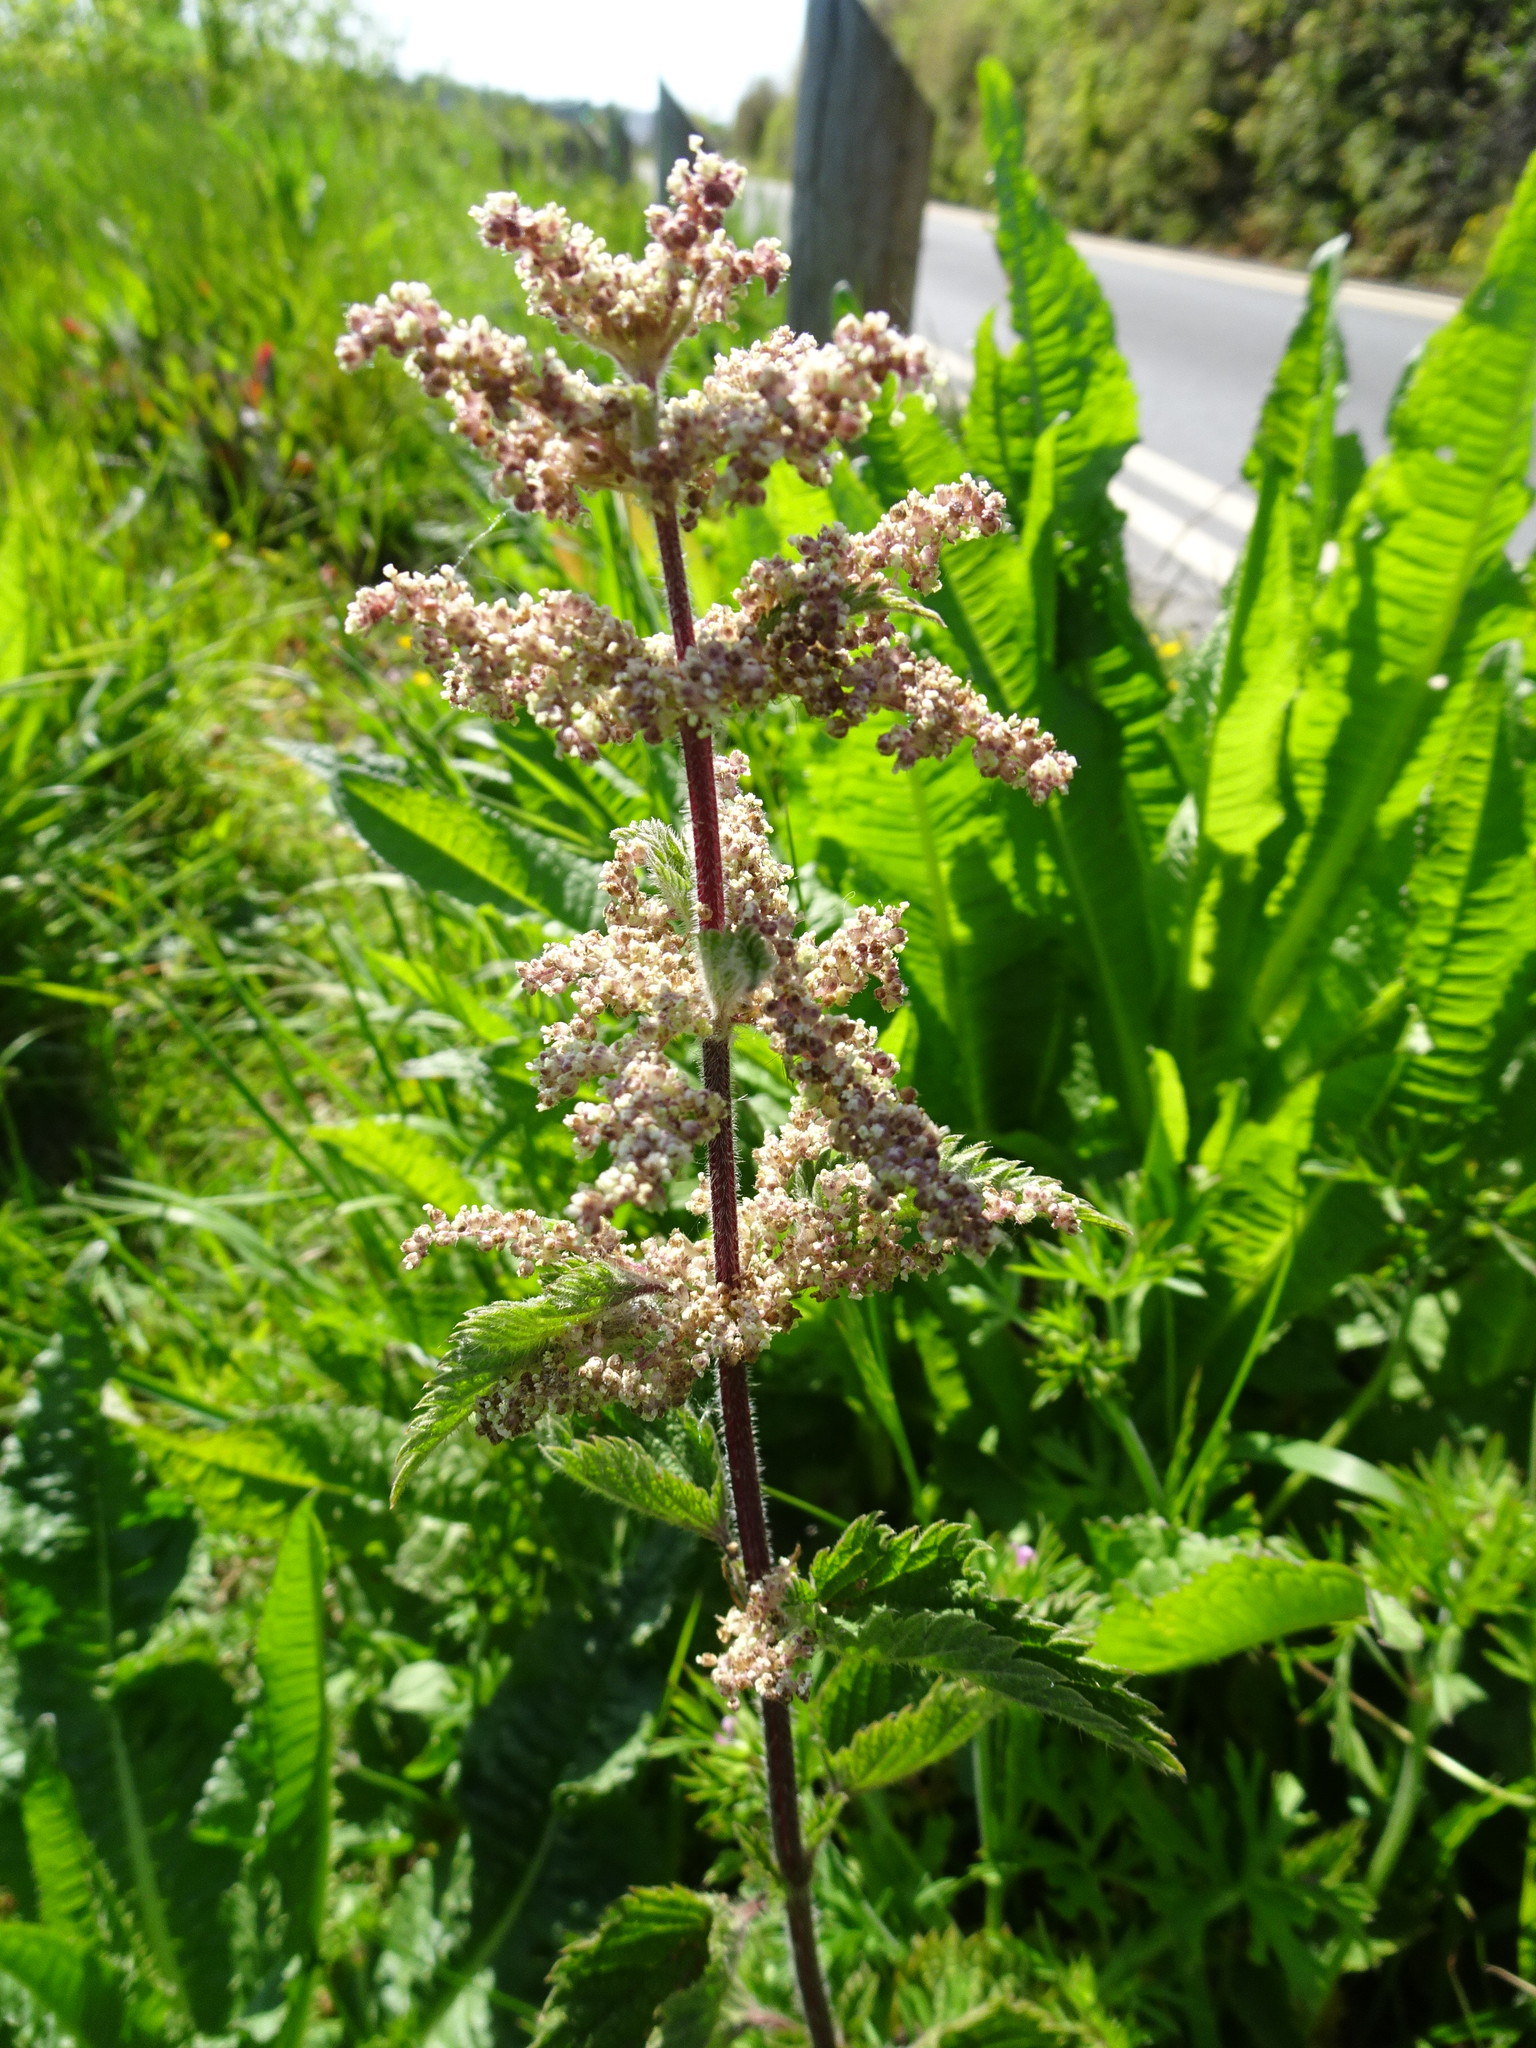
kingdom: Plantae
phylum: Tracheophyta
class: Magnoliopsida
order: Rosales
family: Urticaceae
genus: Urtica
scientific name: Urtica dioica
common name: Common nettle
